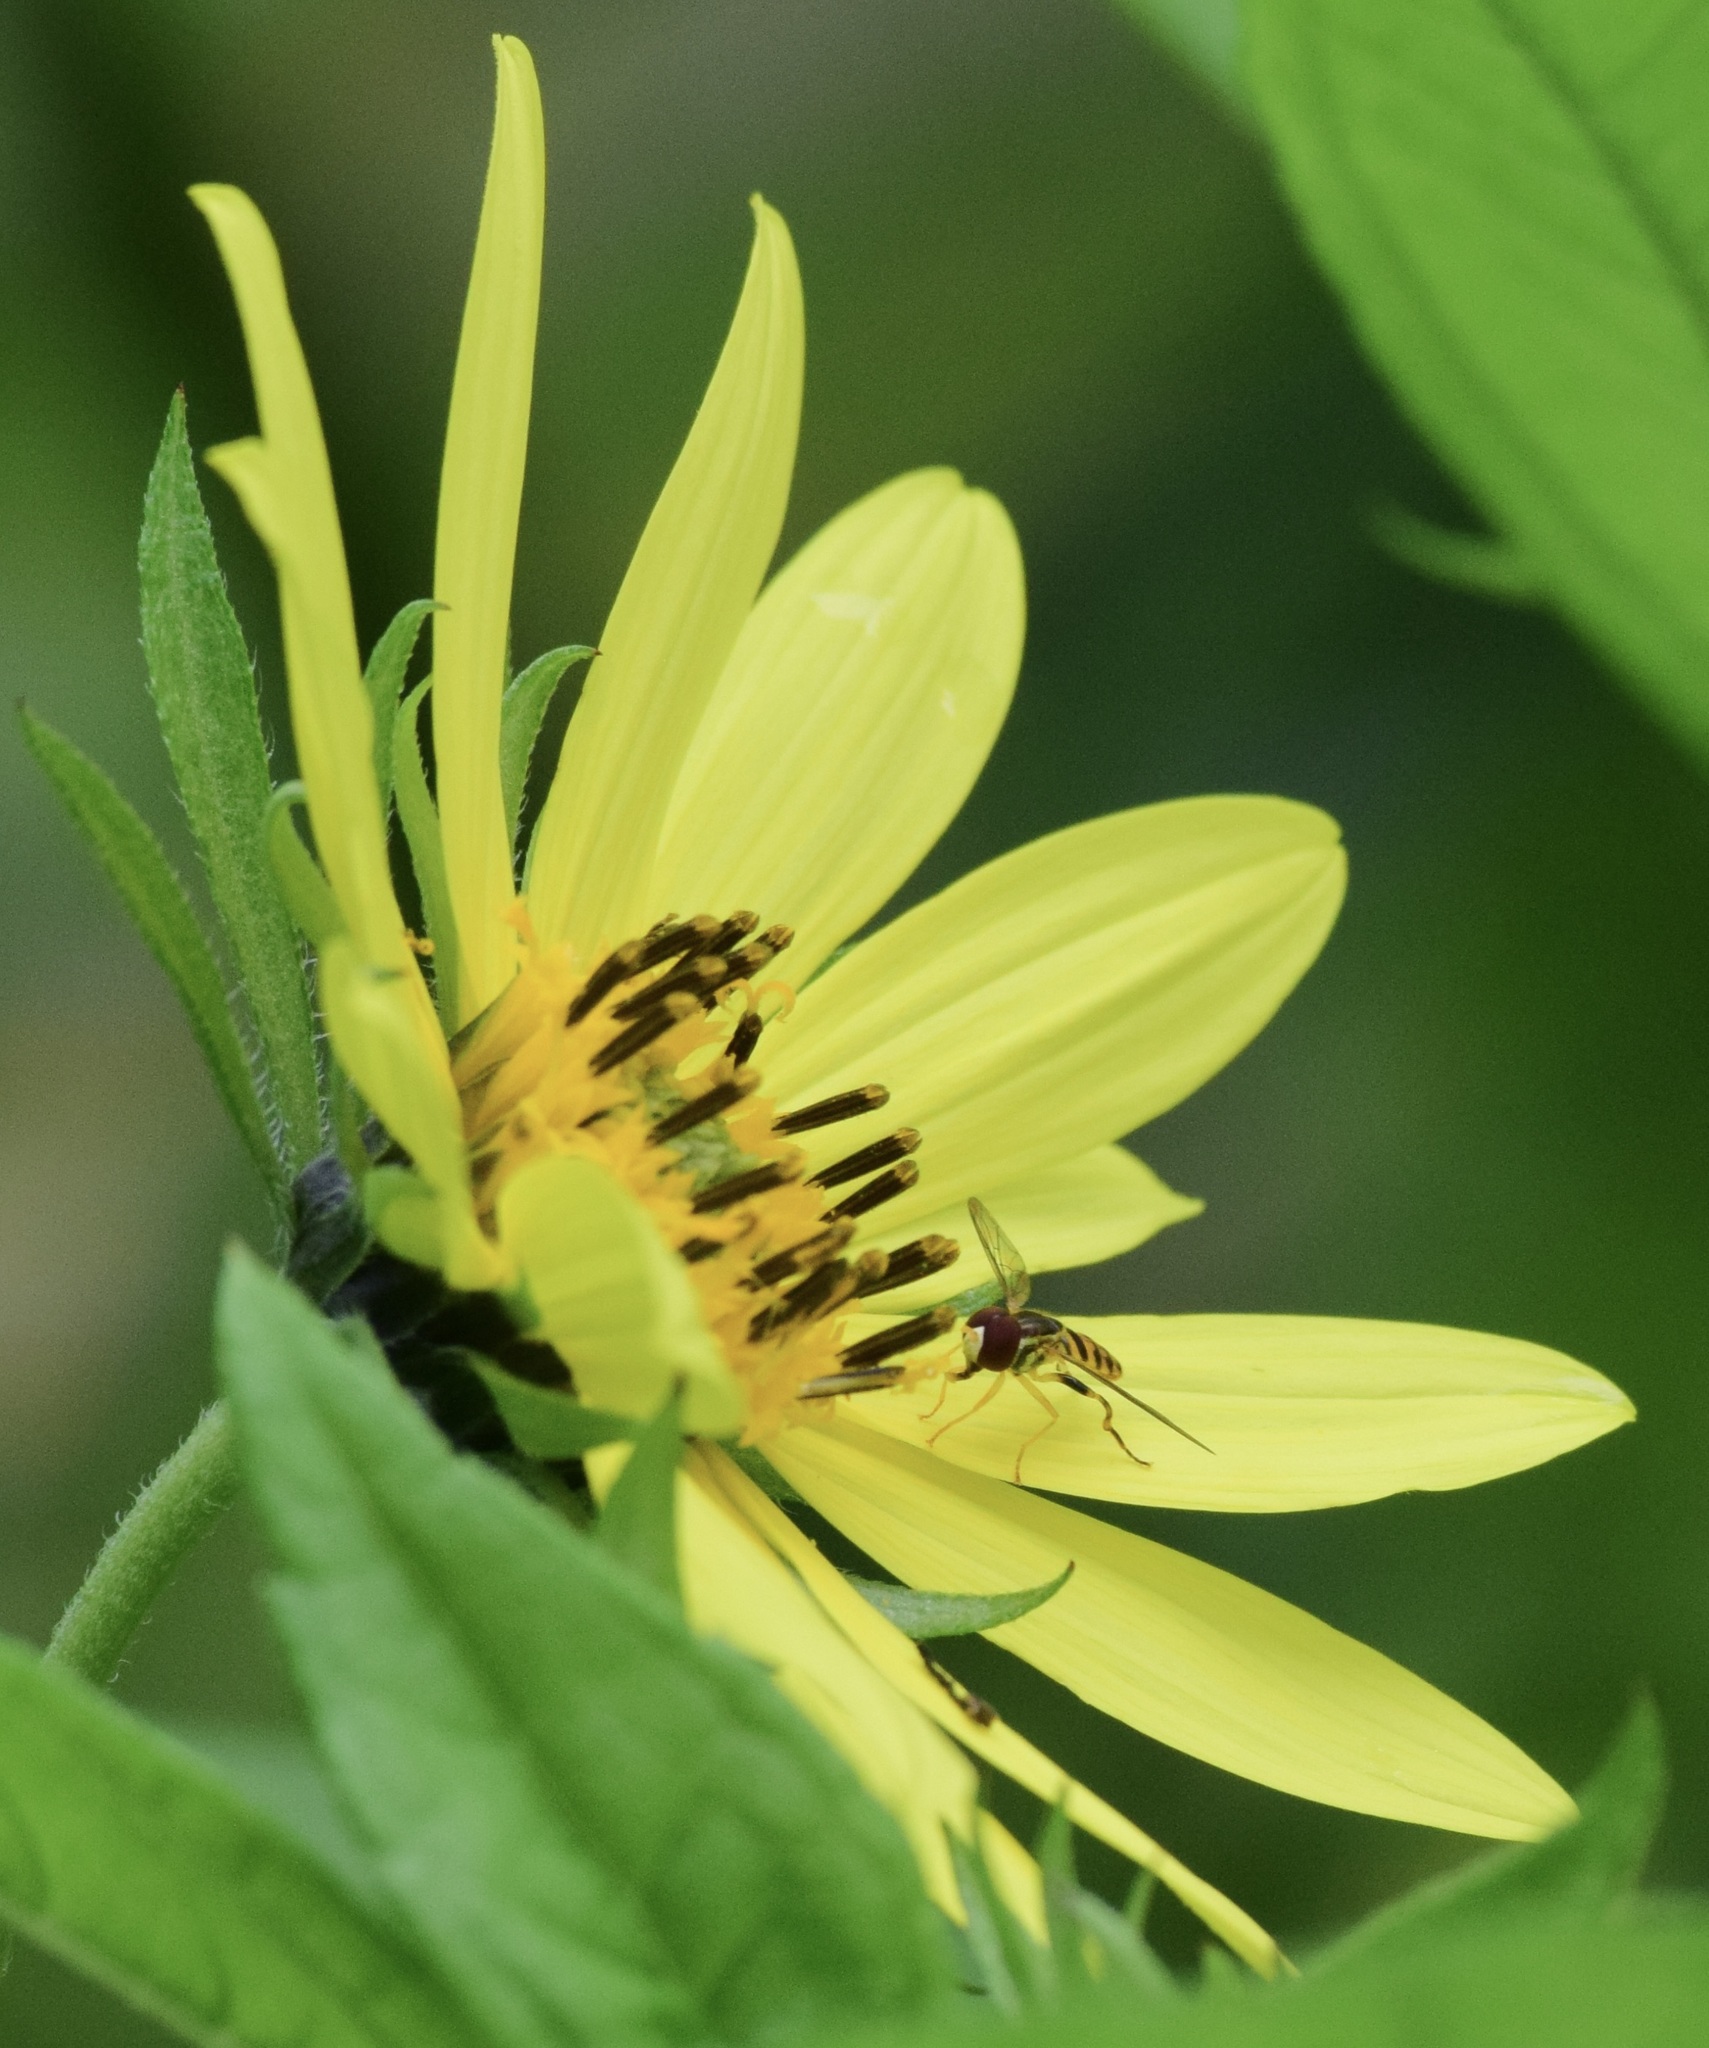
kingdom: Animalia
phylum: Arthropoda
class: Insecta
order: Diptera
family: Syrphidae
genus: Toxomerus
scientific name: Toxomerus geminatus
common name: Eastern calligrapher
